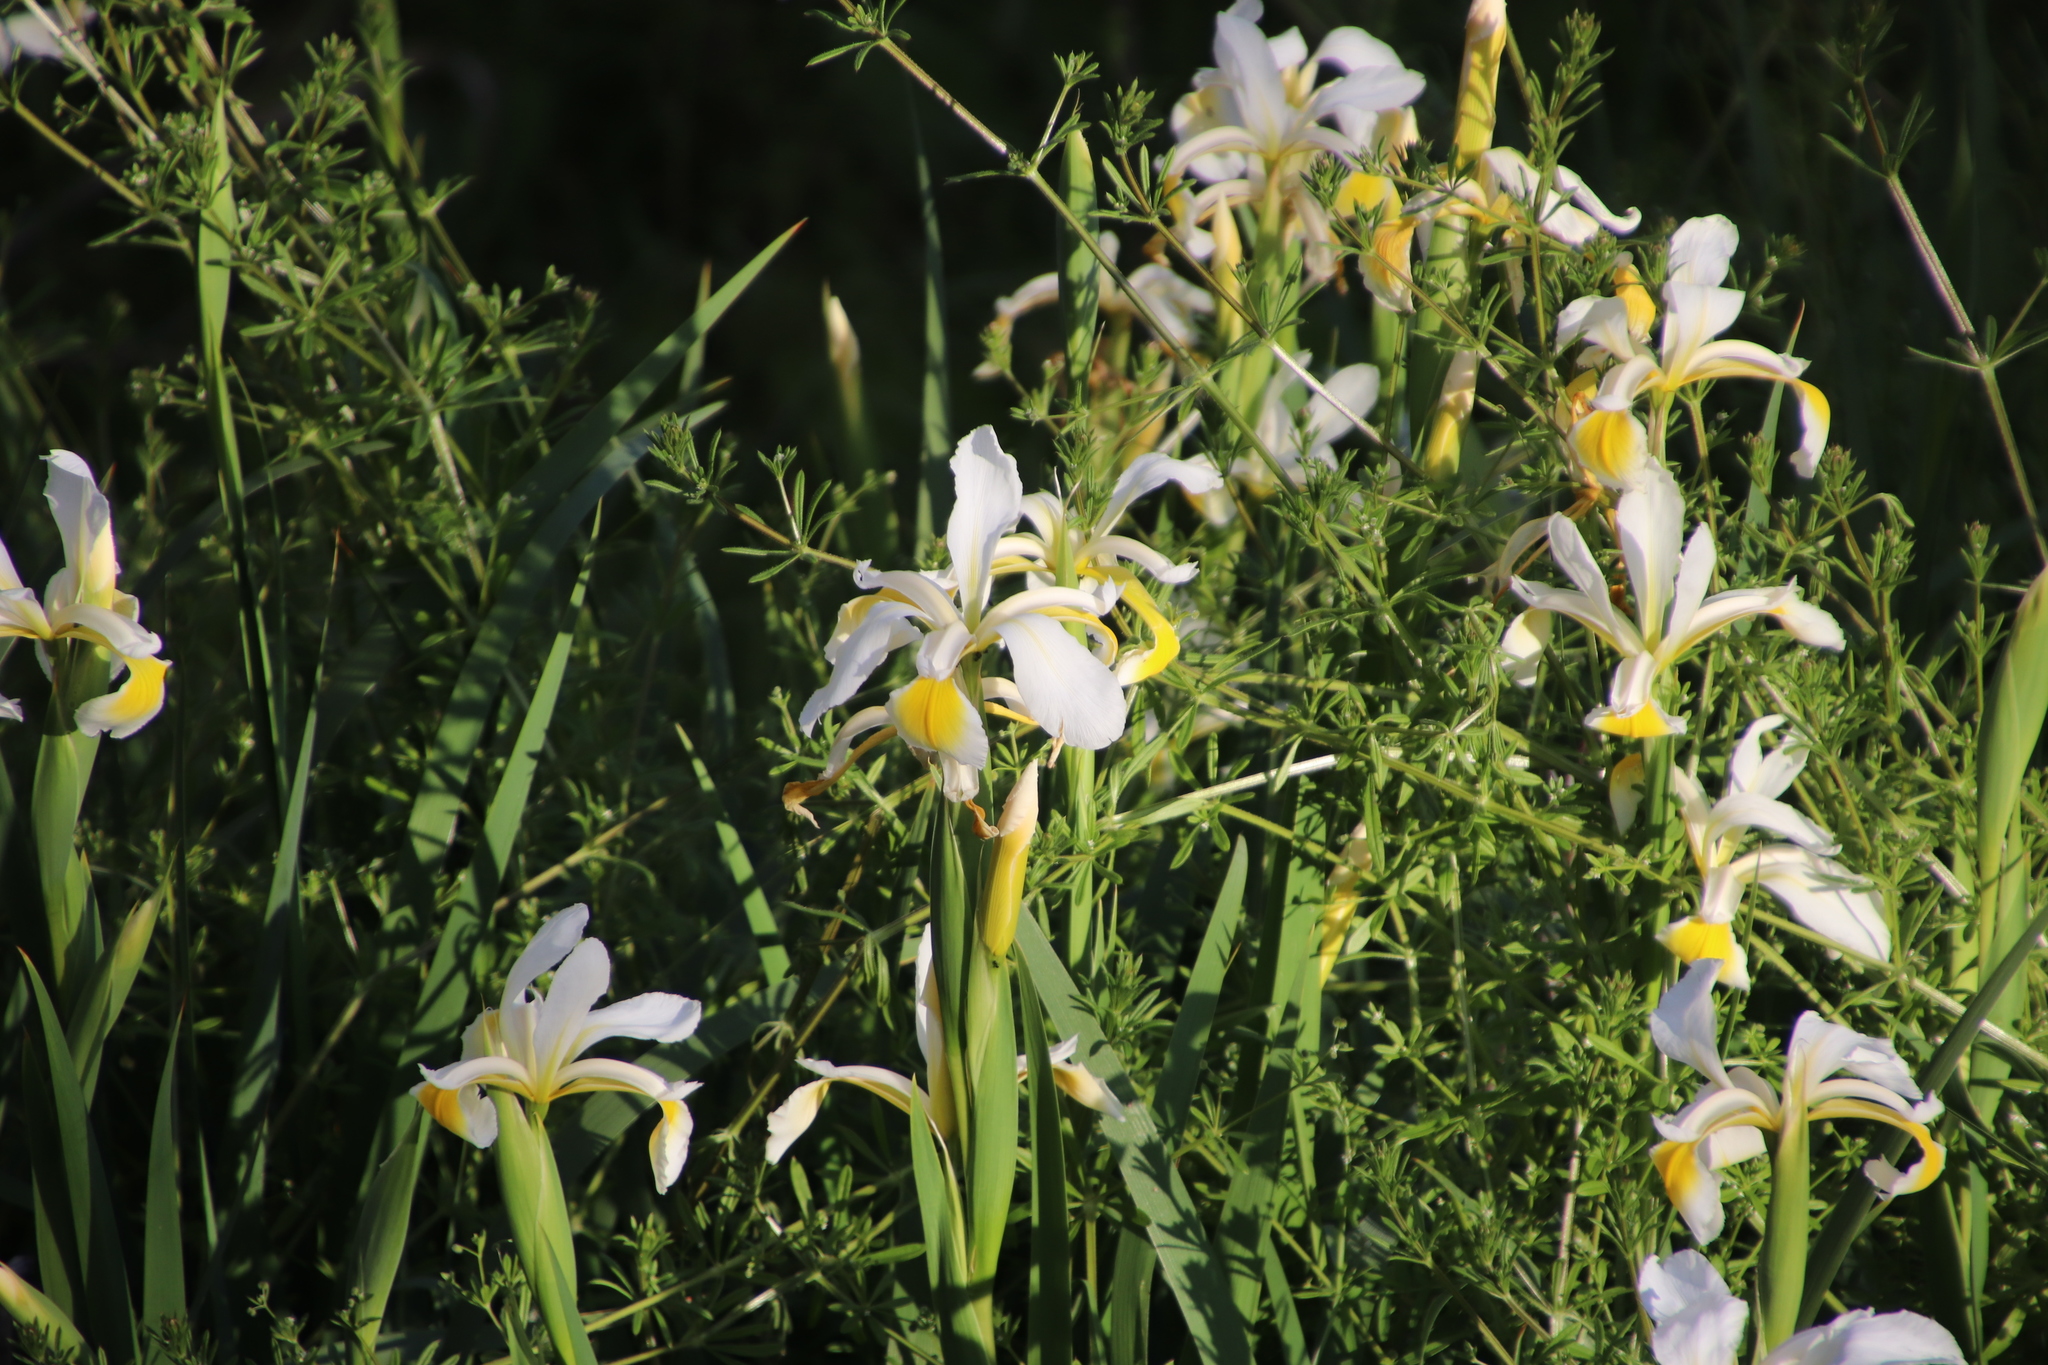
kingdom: Plantae
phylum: Tracheophyta
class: Liliopsida
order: Asparagales
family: Iridaceae
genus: Iris
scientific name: Iris orientalis
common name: Turkish iris
